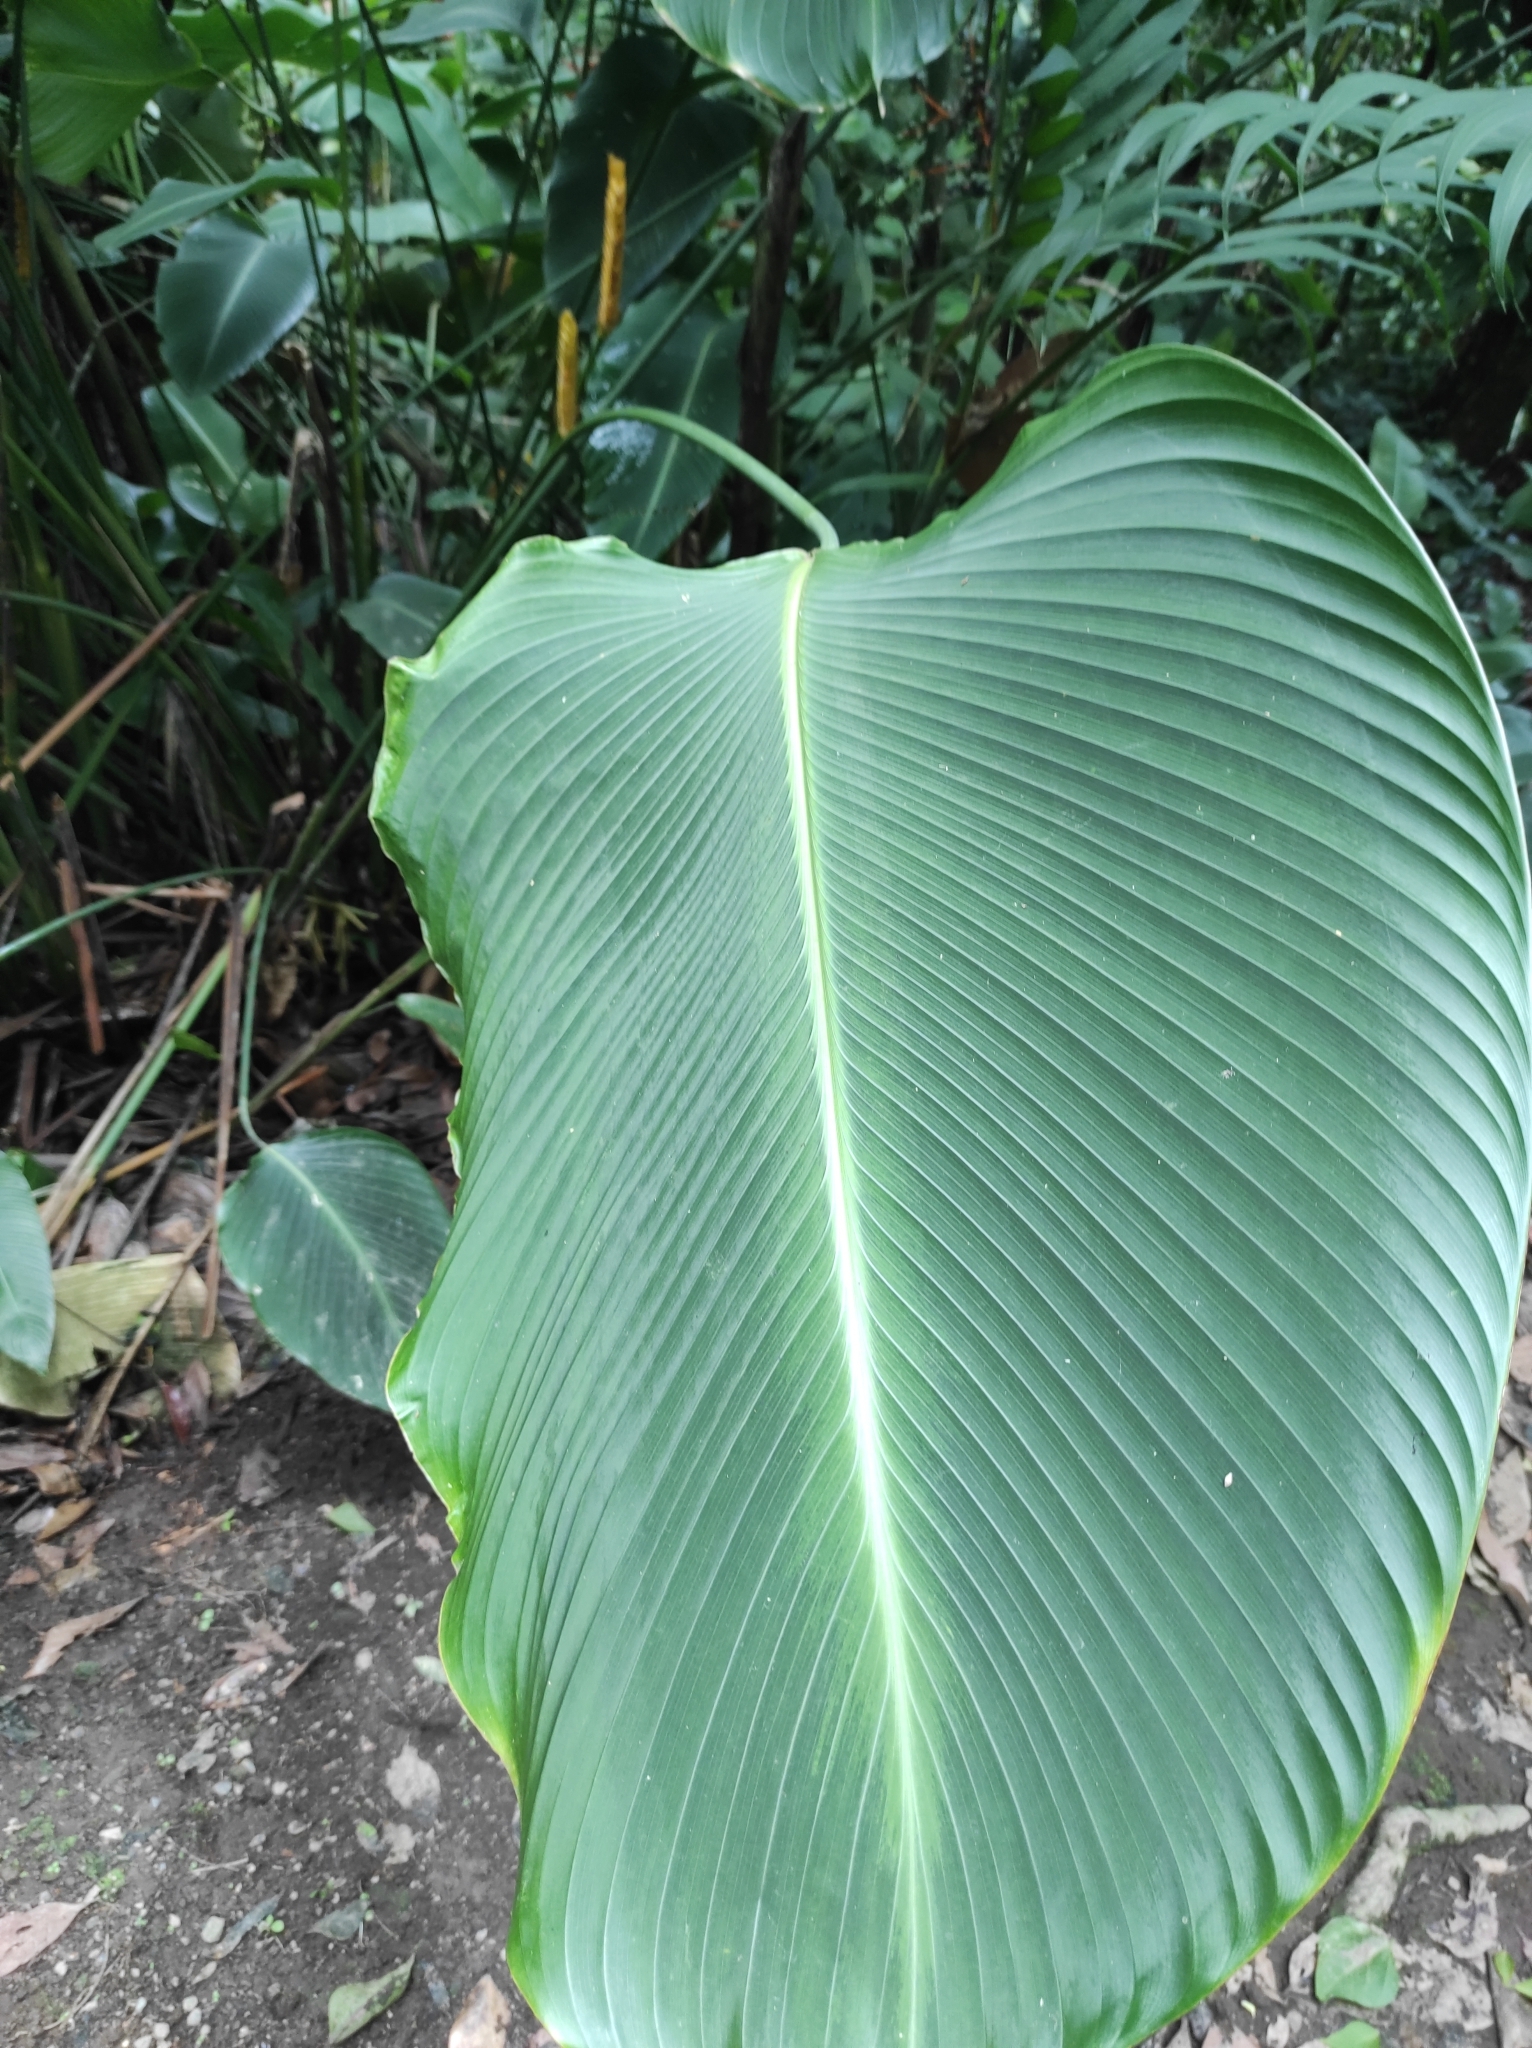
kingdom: Plantae
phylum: Tracheophyta
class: Liliopsida
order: Zingiberales
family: Marantaceae
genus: Calathea
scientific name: Calathea crotalifera
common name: Rattlesnake plant
